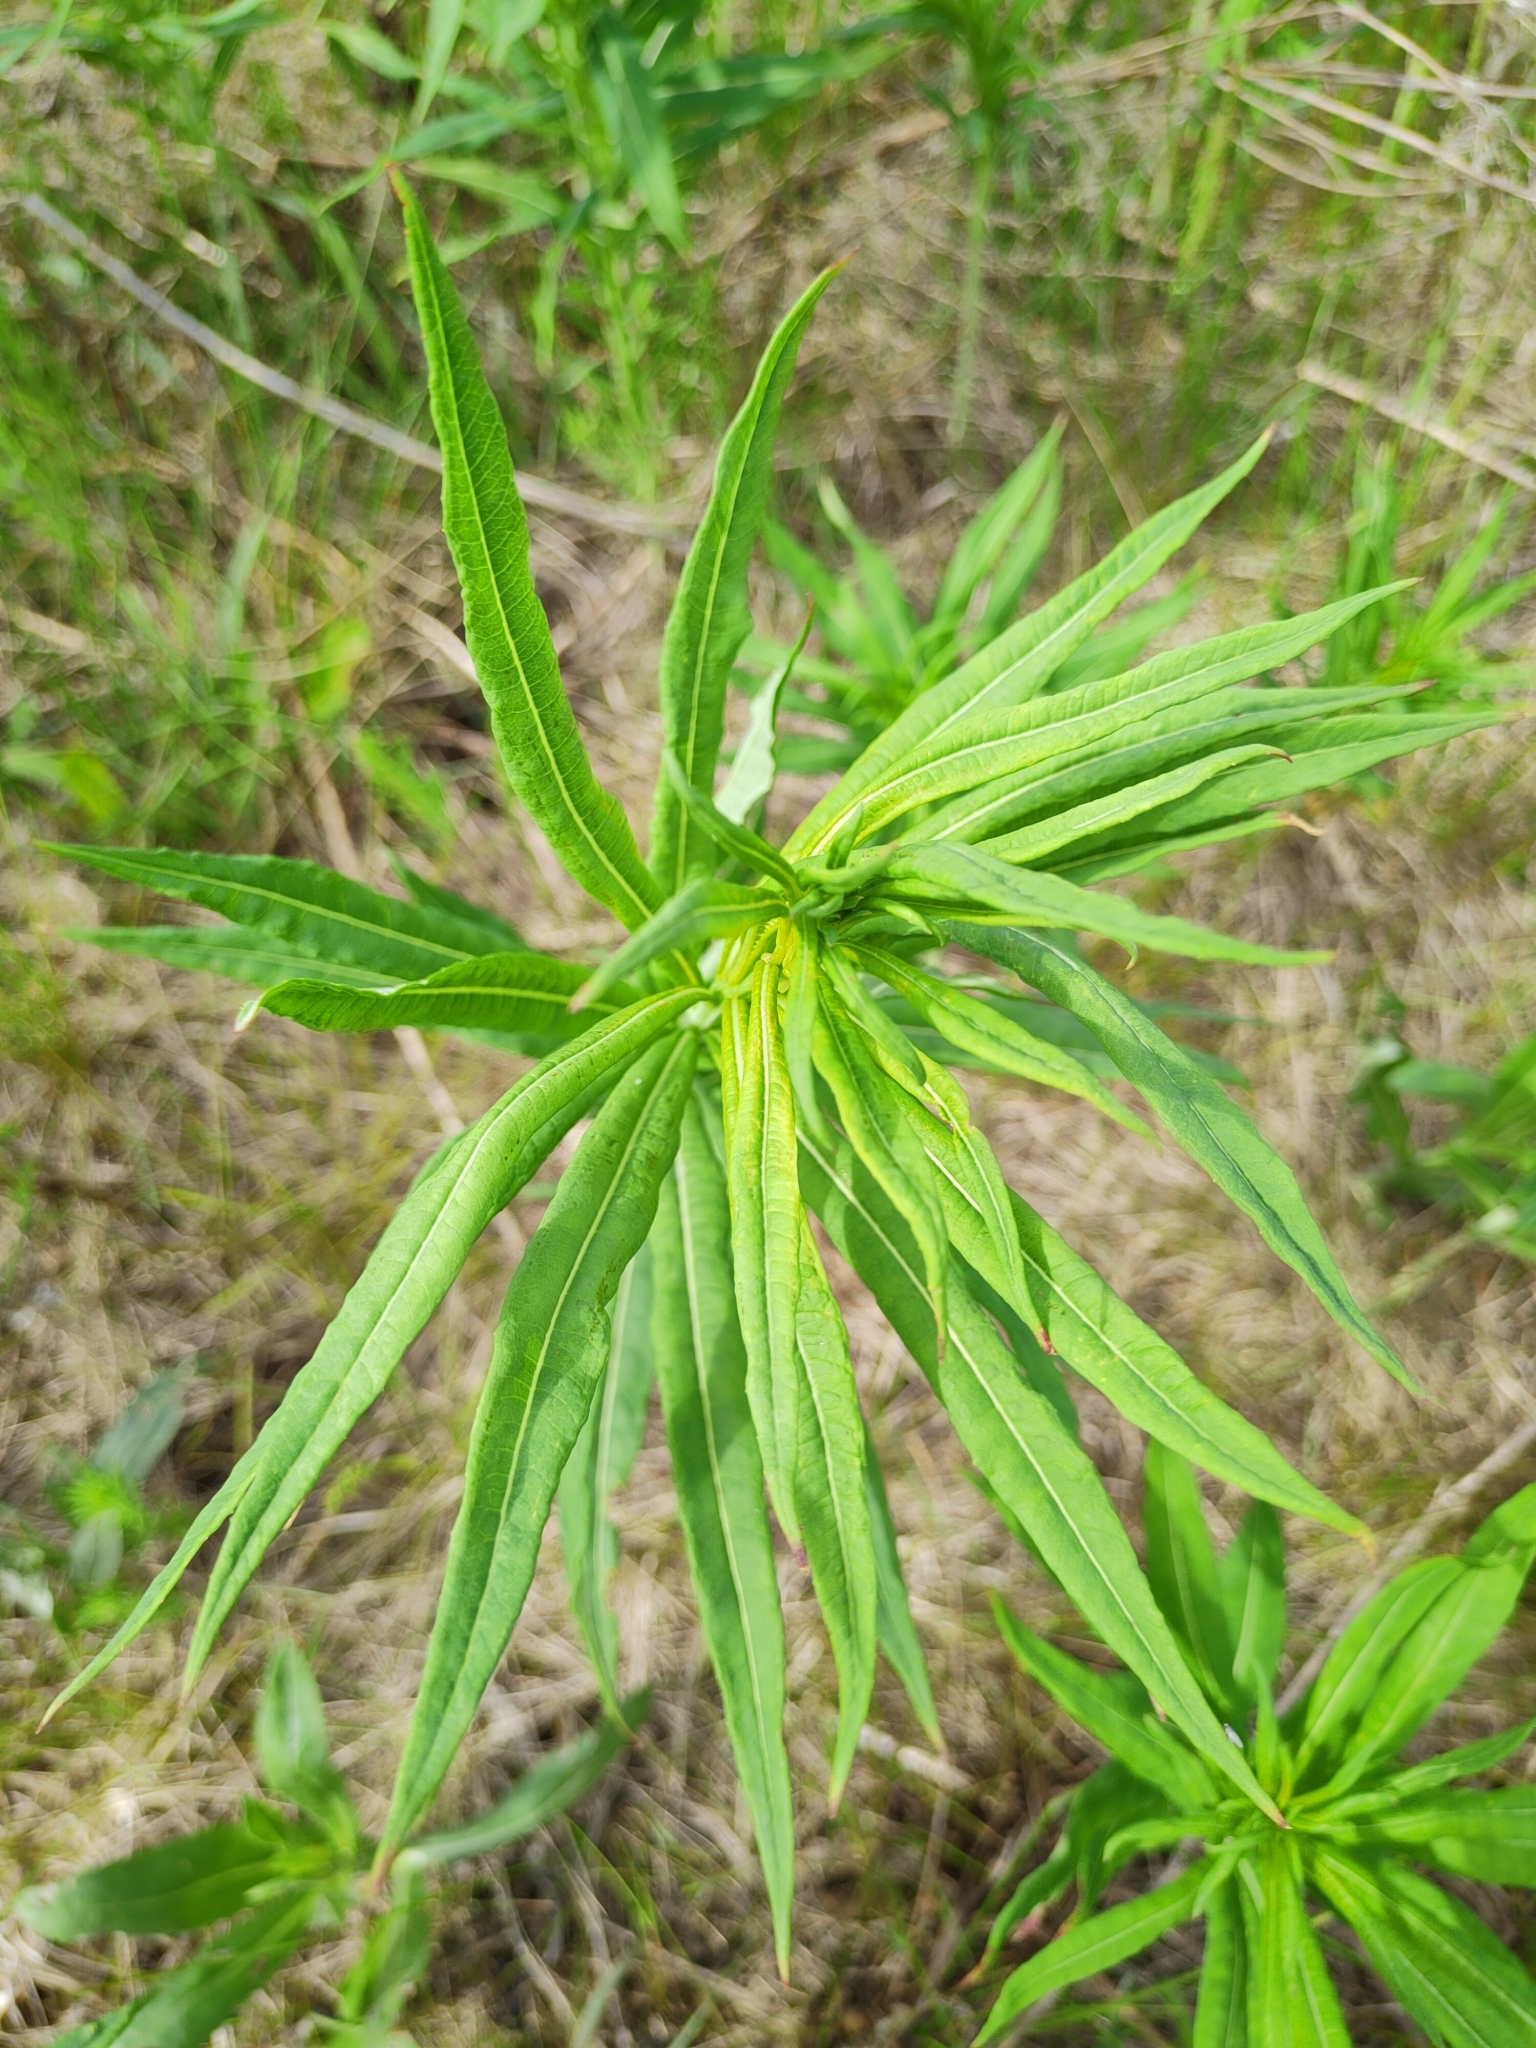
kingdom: Plantae
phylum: Tracheophyta
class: Magnoliopsida
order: Myrtales
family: Onagraceae
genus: Chamaenerion
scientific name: Chamaenerion angustifolium
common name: Fireweed
